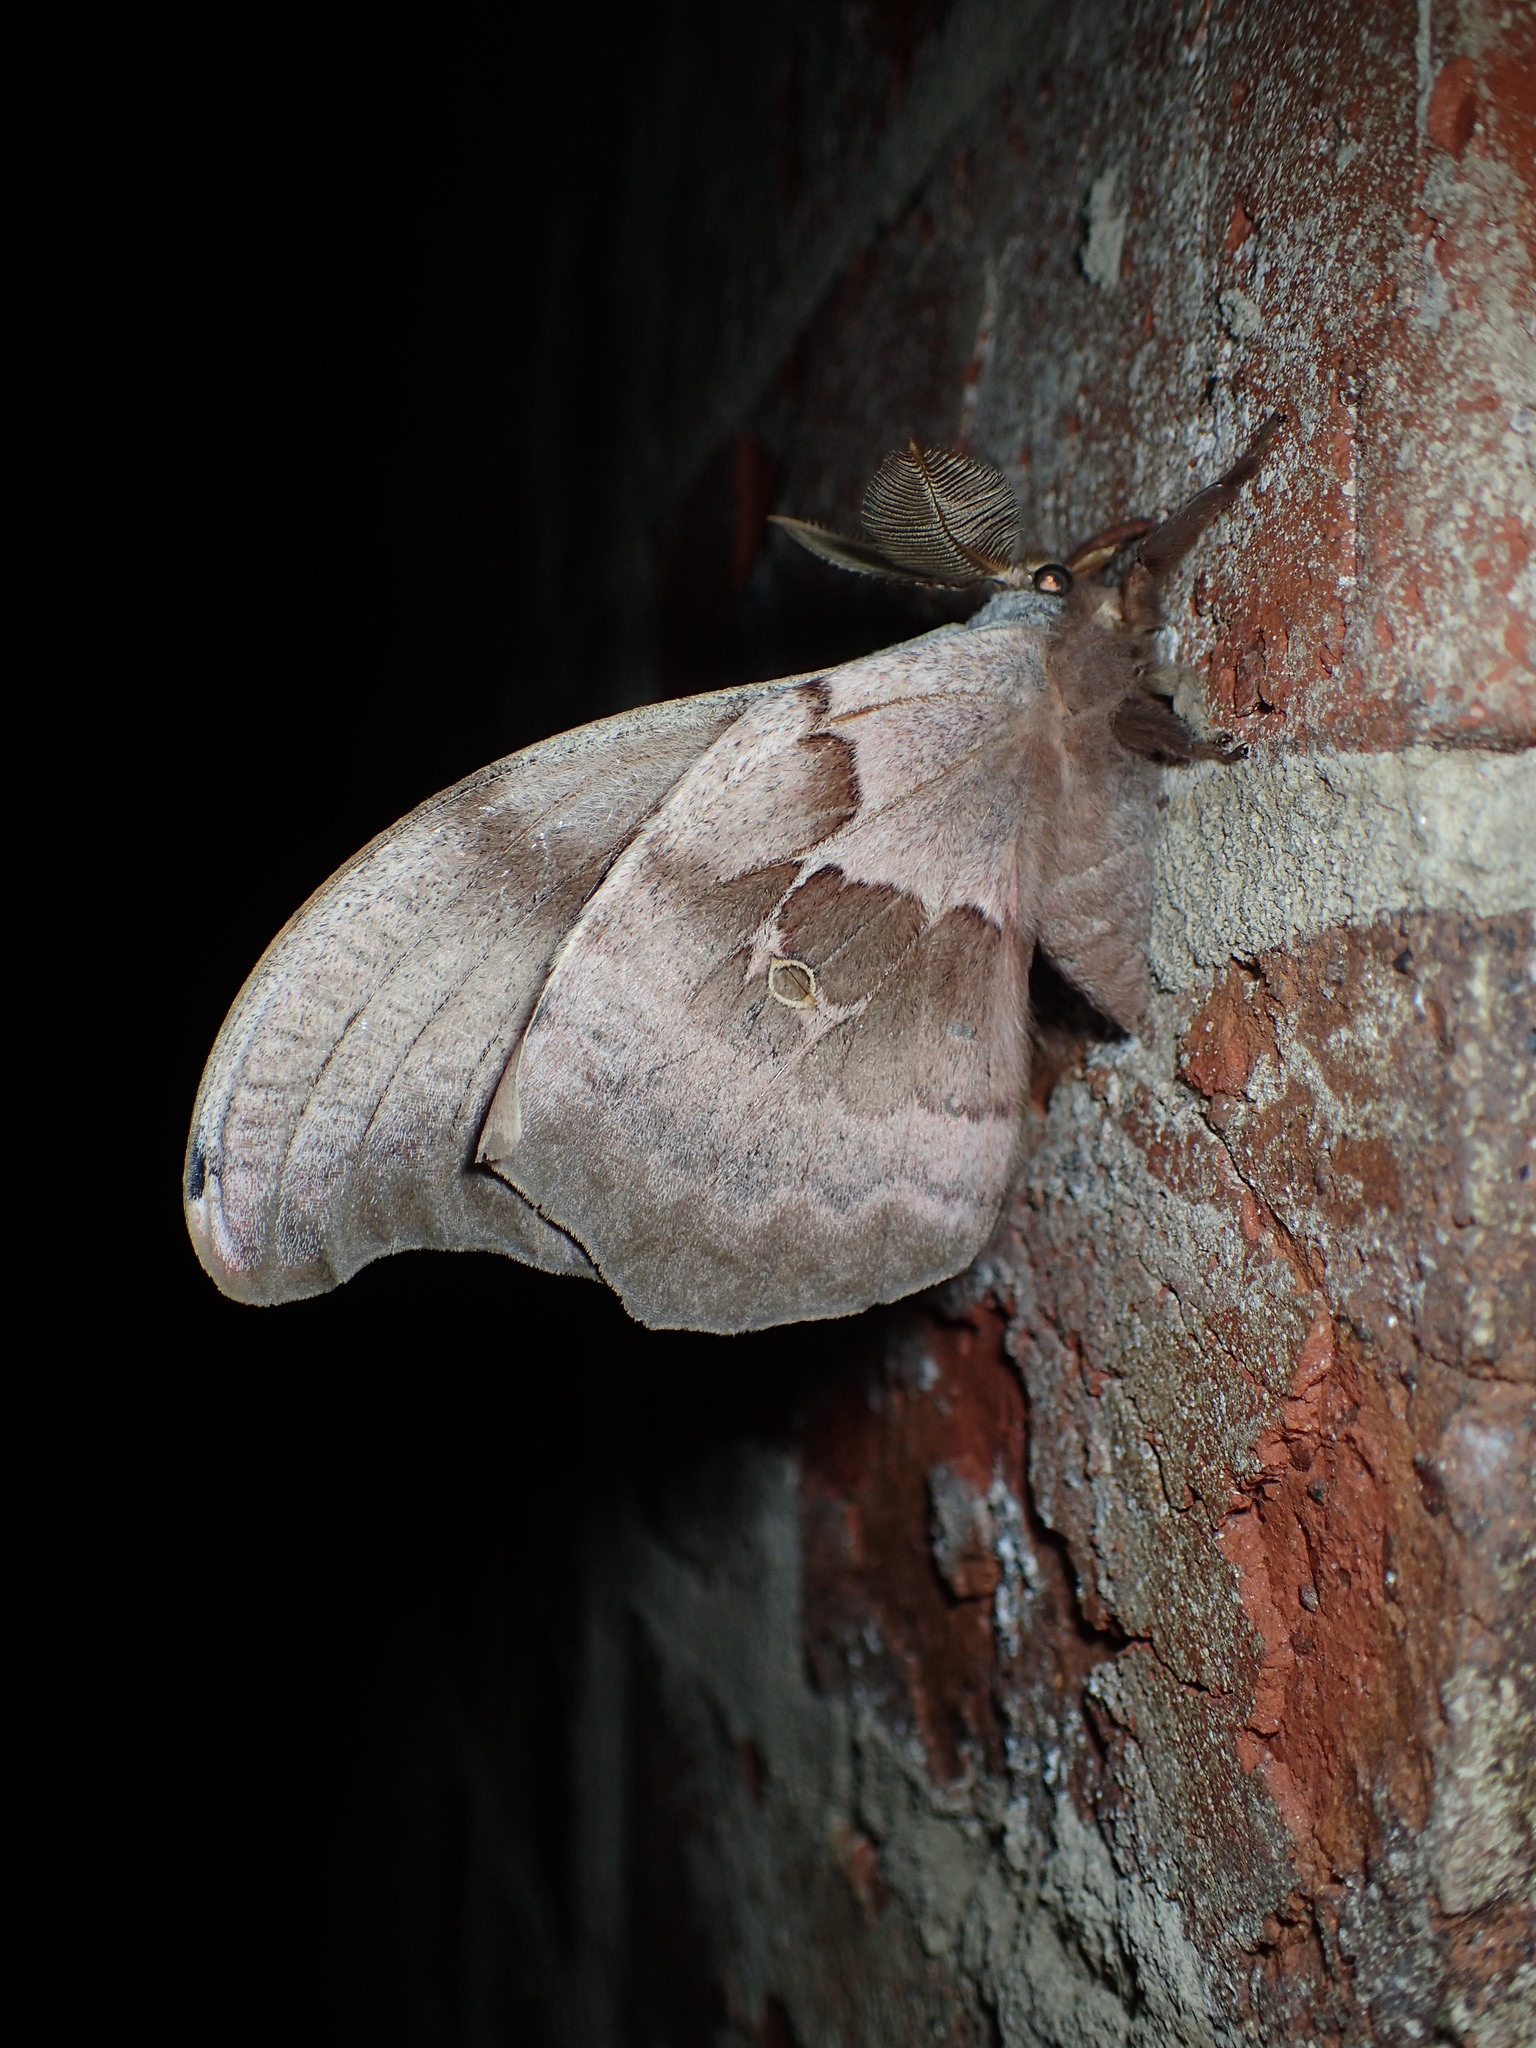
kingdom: Animalia
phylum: Arthropoda
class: Insecta
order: Lepidoptera
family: Saturniidae
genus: Antheraea
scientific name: Antheraea polyphemus
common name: Polyphemus moth
